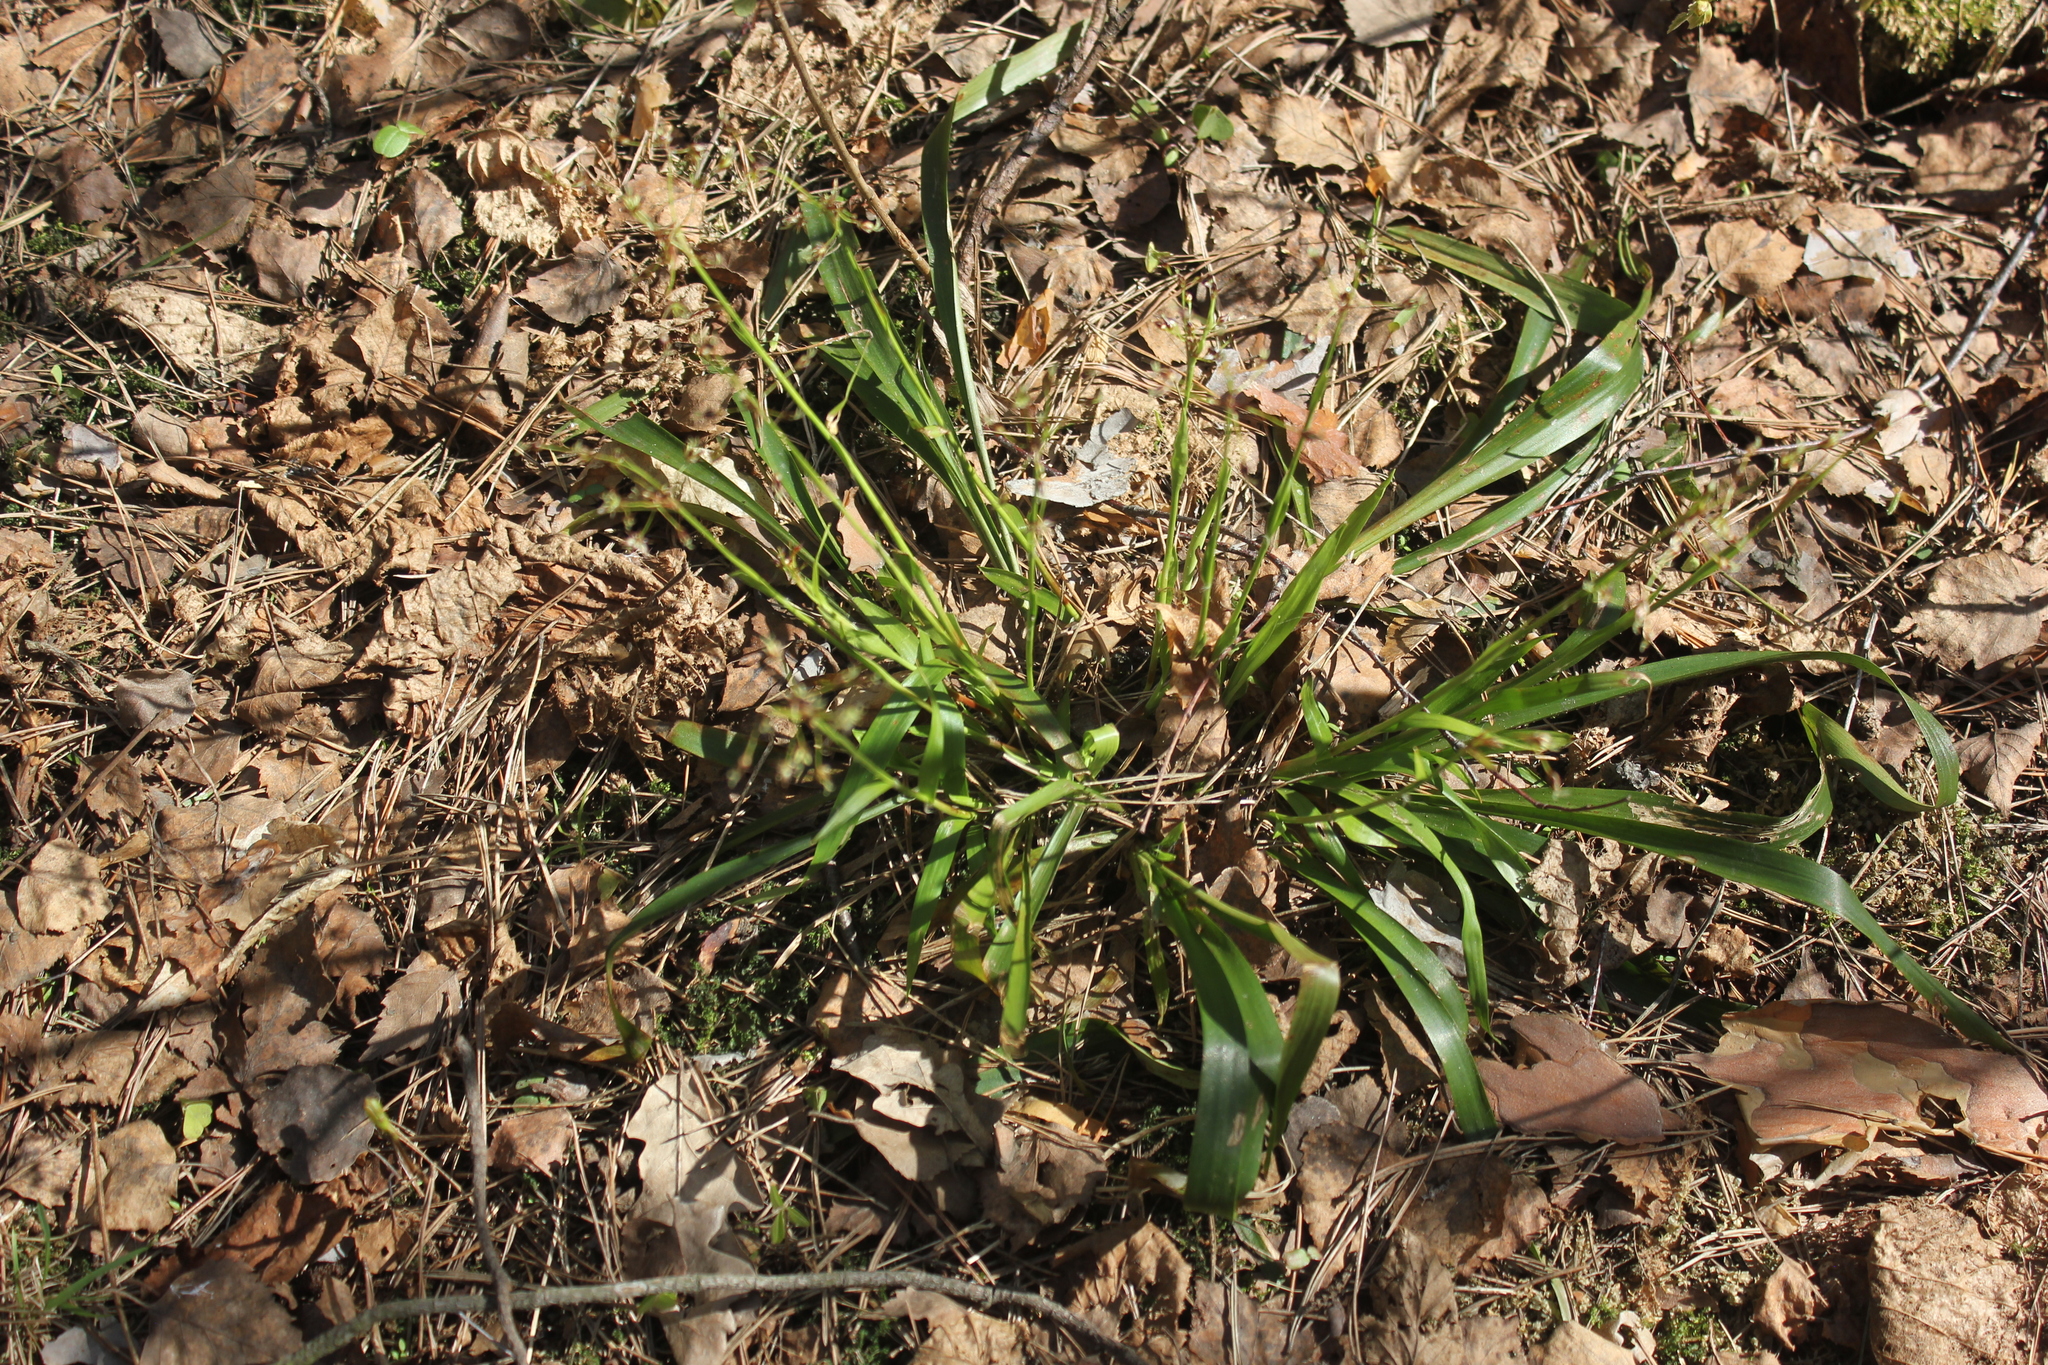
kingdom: Plantae
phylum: Tracheophyta
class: Liliopsida
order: Poales
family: Juncaceae
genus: Luzula
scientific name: Luzula pilosa
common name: Hairy wood-rush
